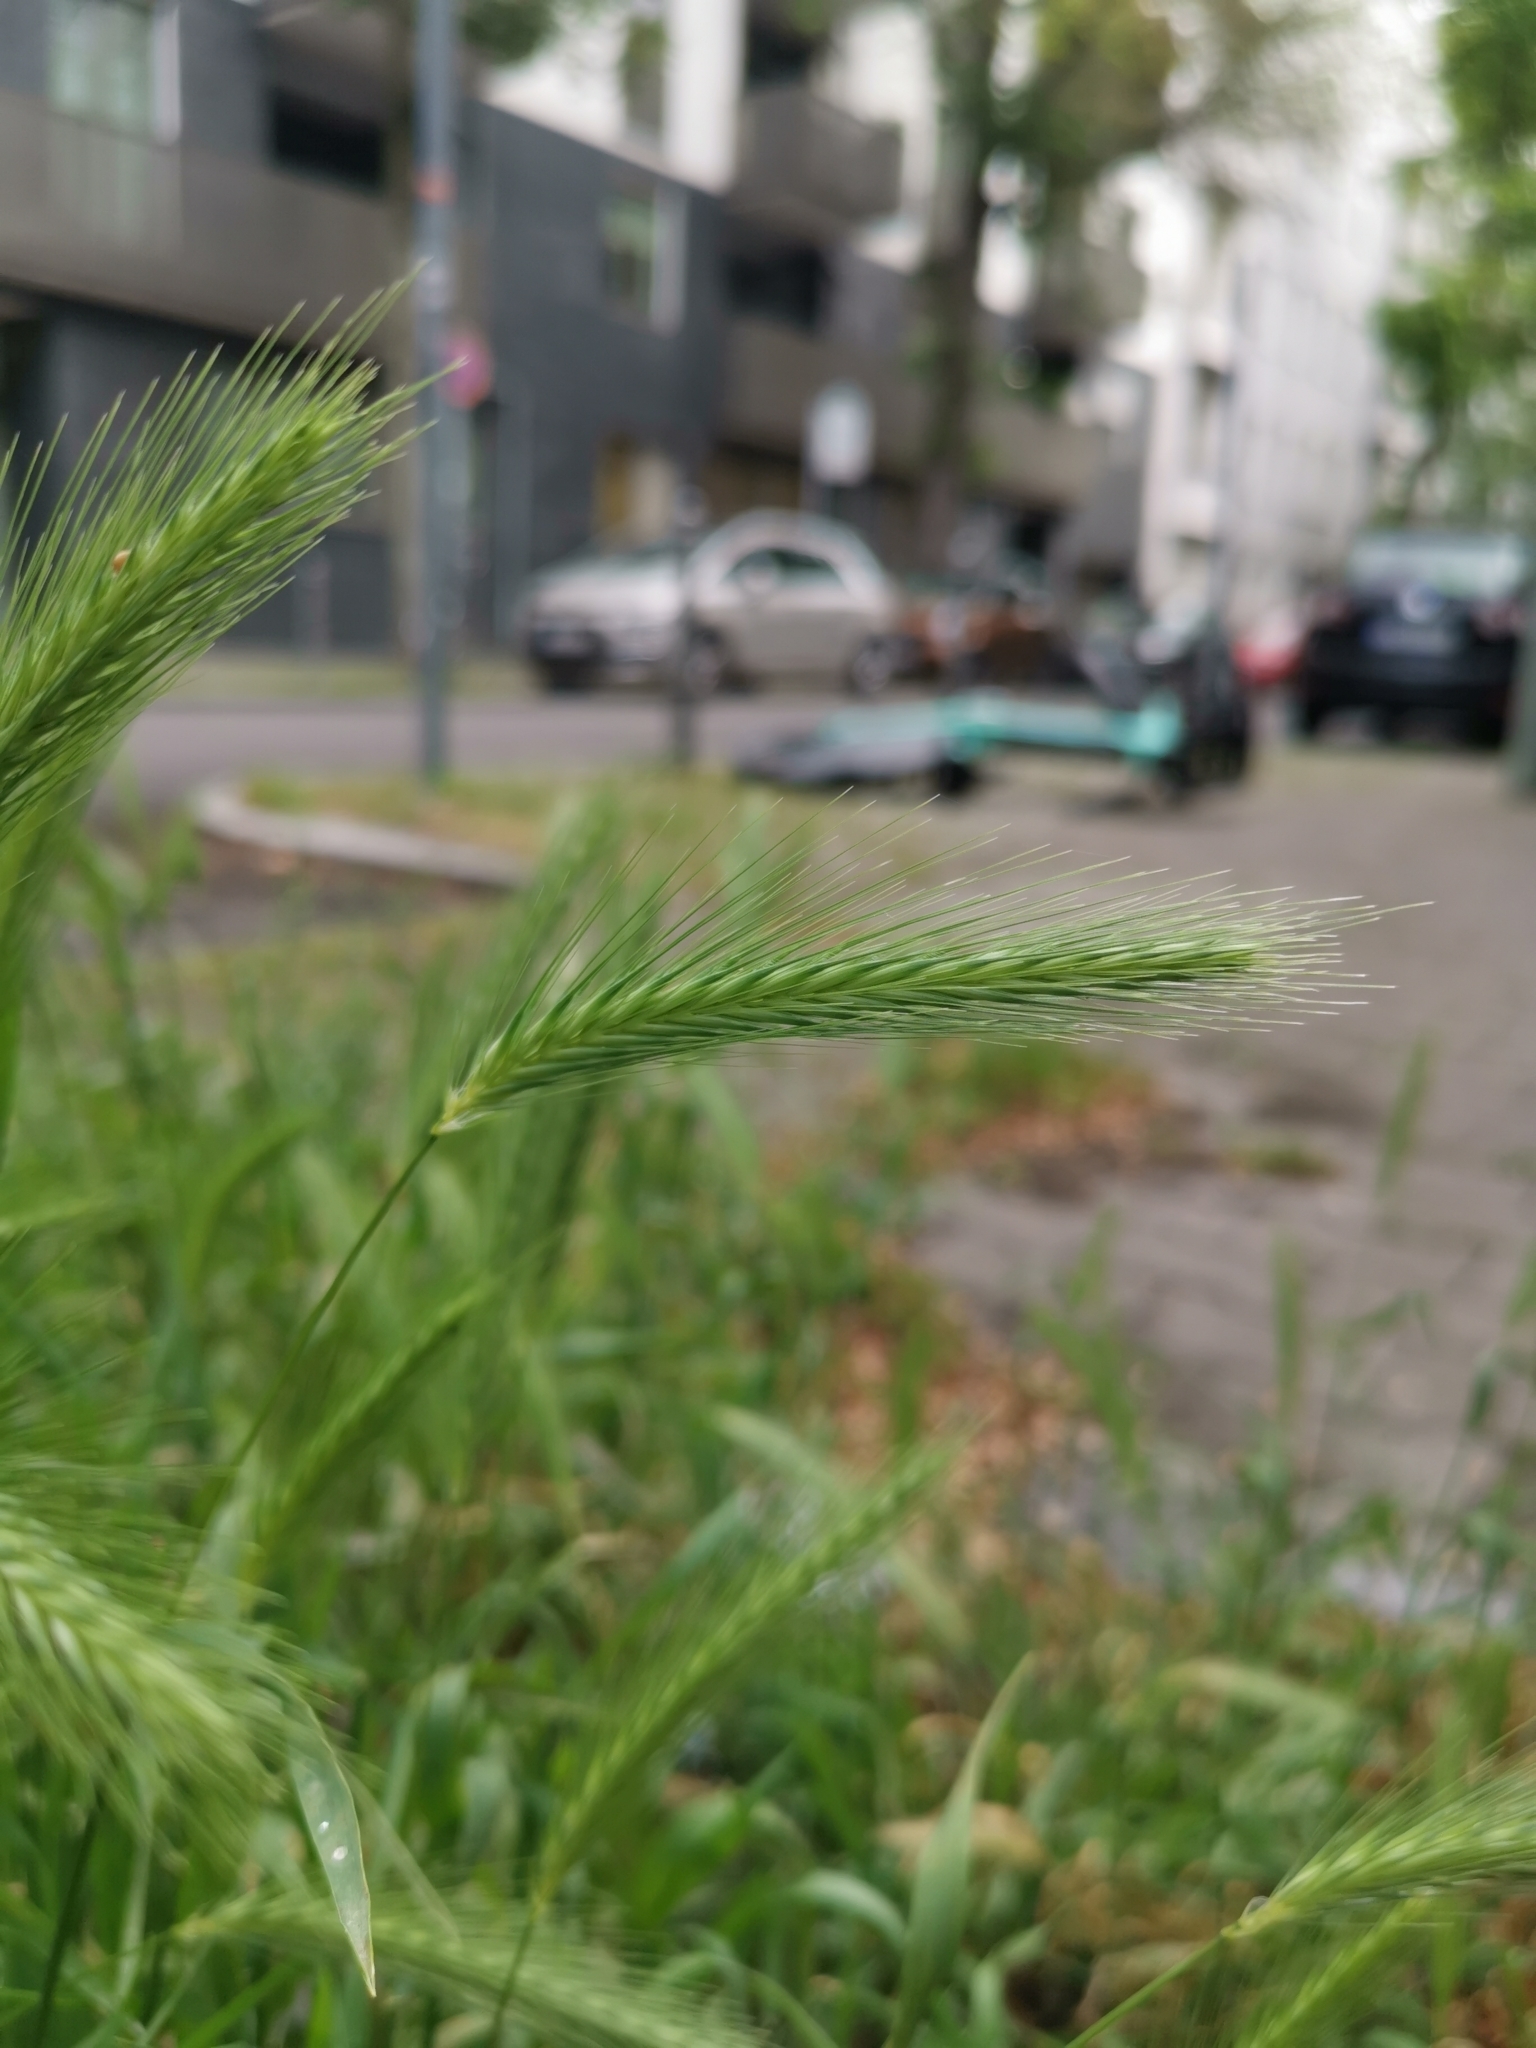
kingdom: Plantae
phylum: Tracheophyta
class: Liliopsida
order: Poales
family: Poaceae
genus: Hordeum
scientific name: Hordeum murinum
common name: Wall barley
